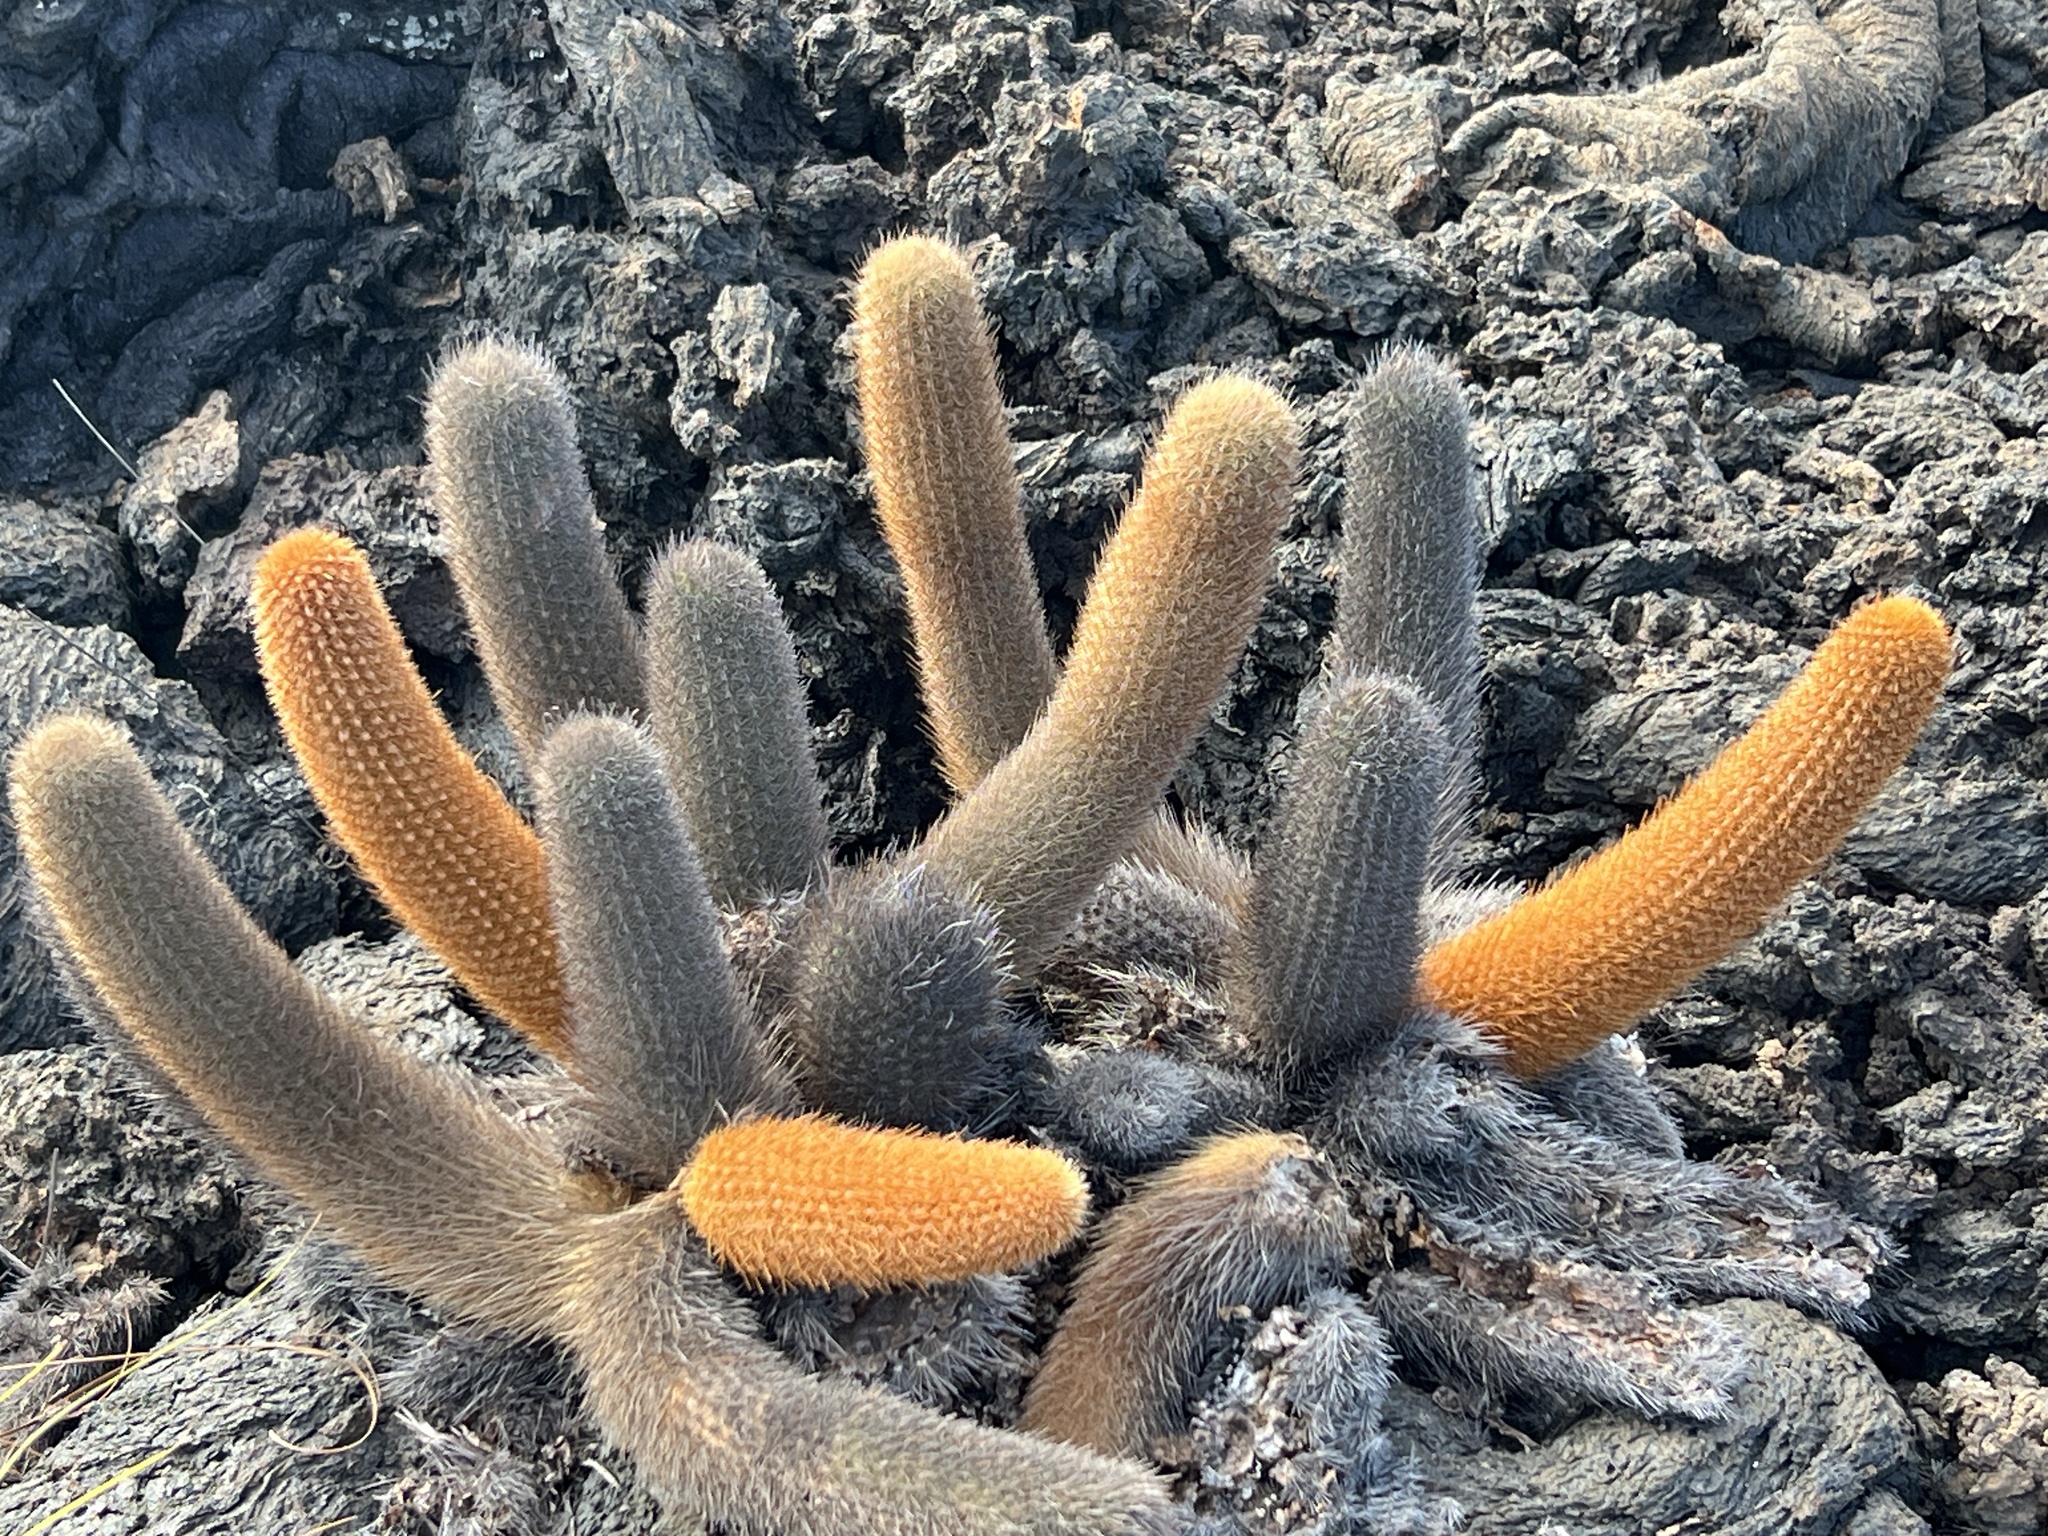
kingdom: Plantae
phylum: Tracheophyta
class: Magnoliopsida
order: Caryophyllales
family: Cactaceae
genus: Brachycereus
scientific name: Brachycereus nesioticus
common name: Lava cactus
